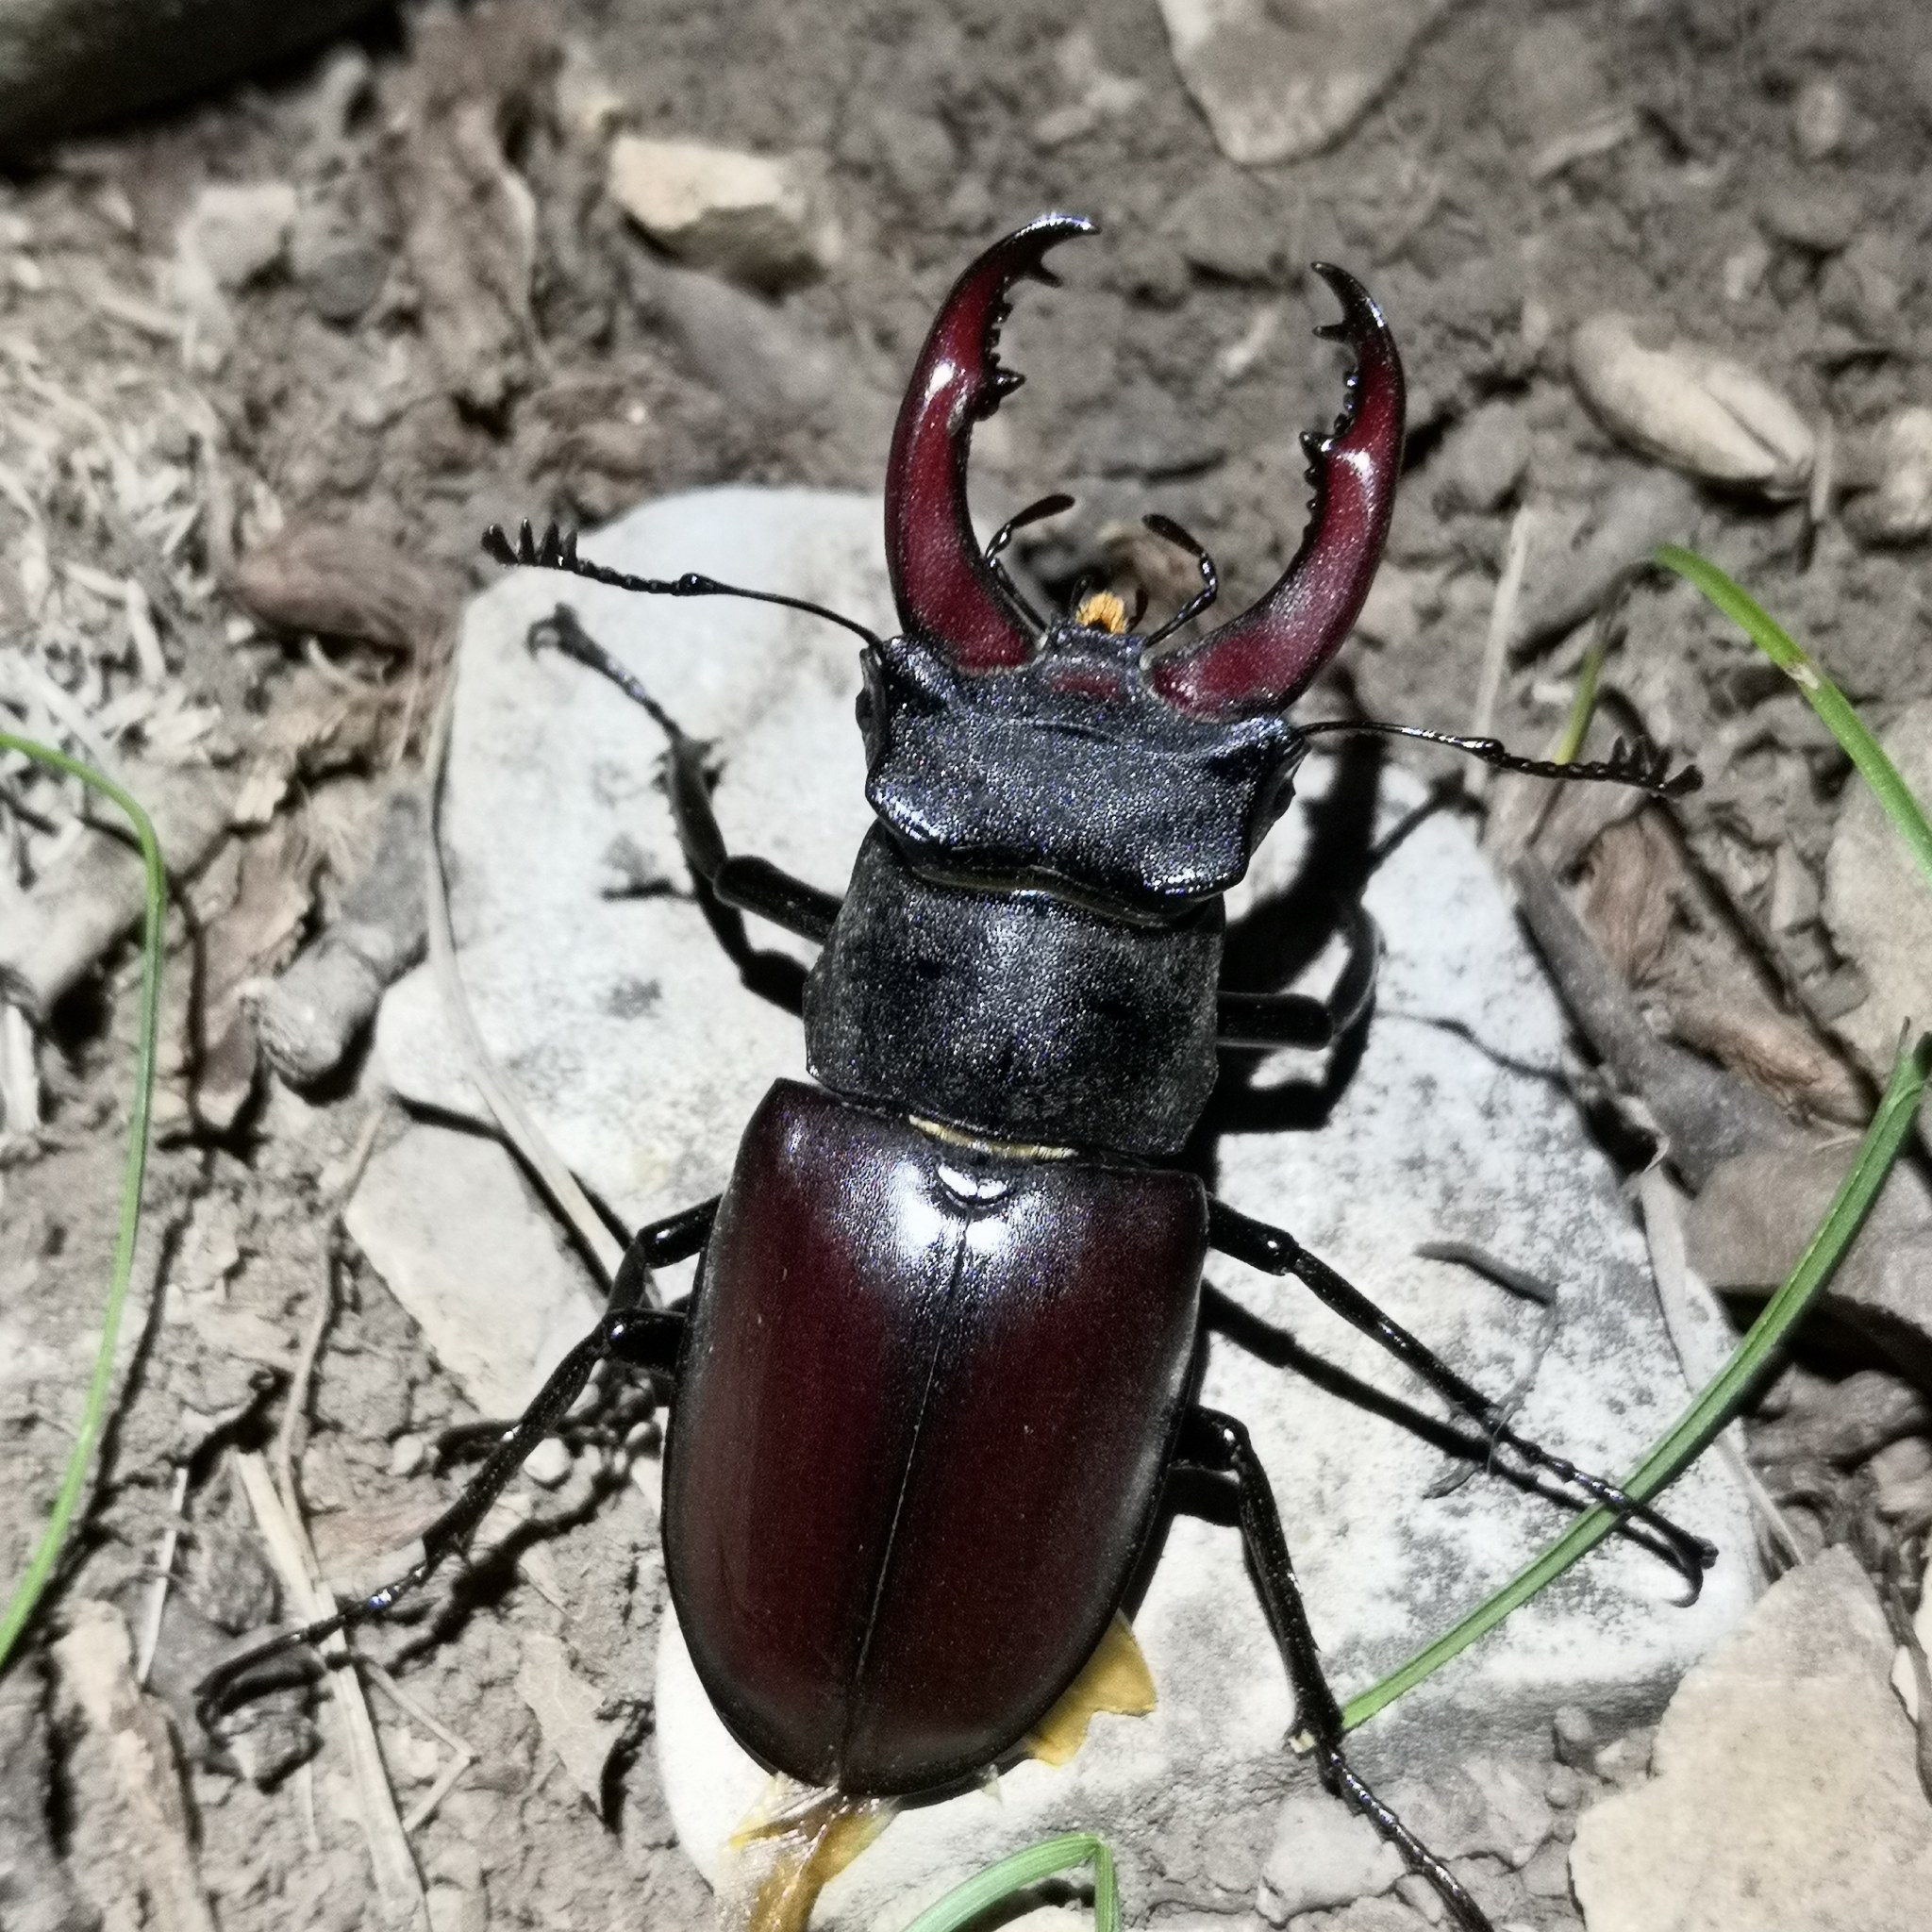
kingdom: Animalia
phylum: Arthropoda
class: Insecta
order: Coleoptera
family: Lucanidae
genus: Lucanus
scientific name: Lucanus cervus
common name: Stag beetle
